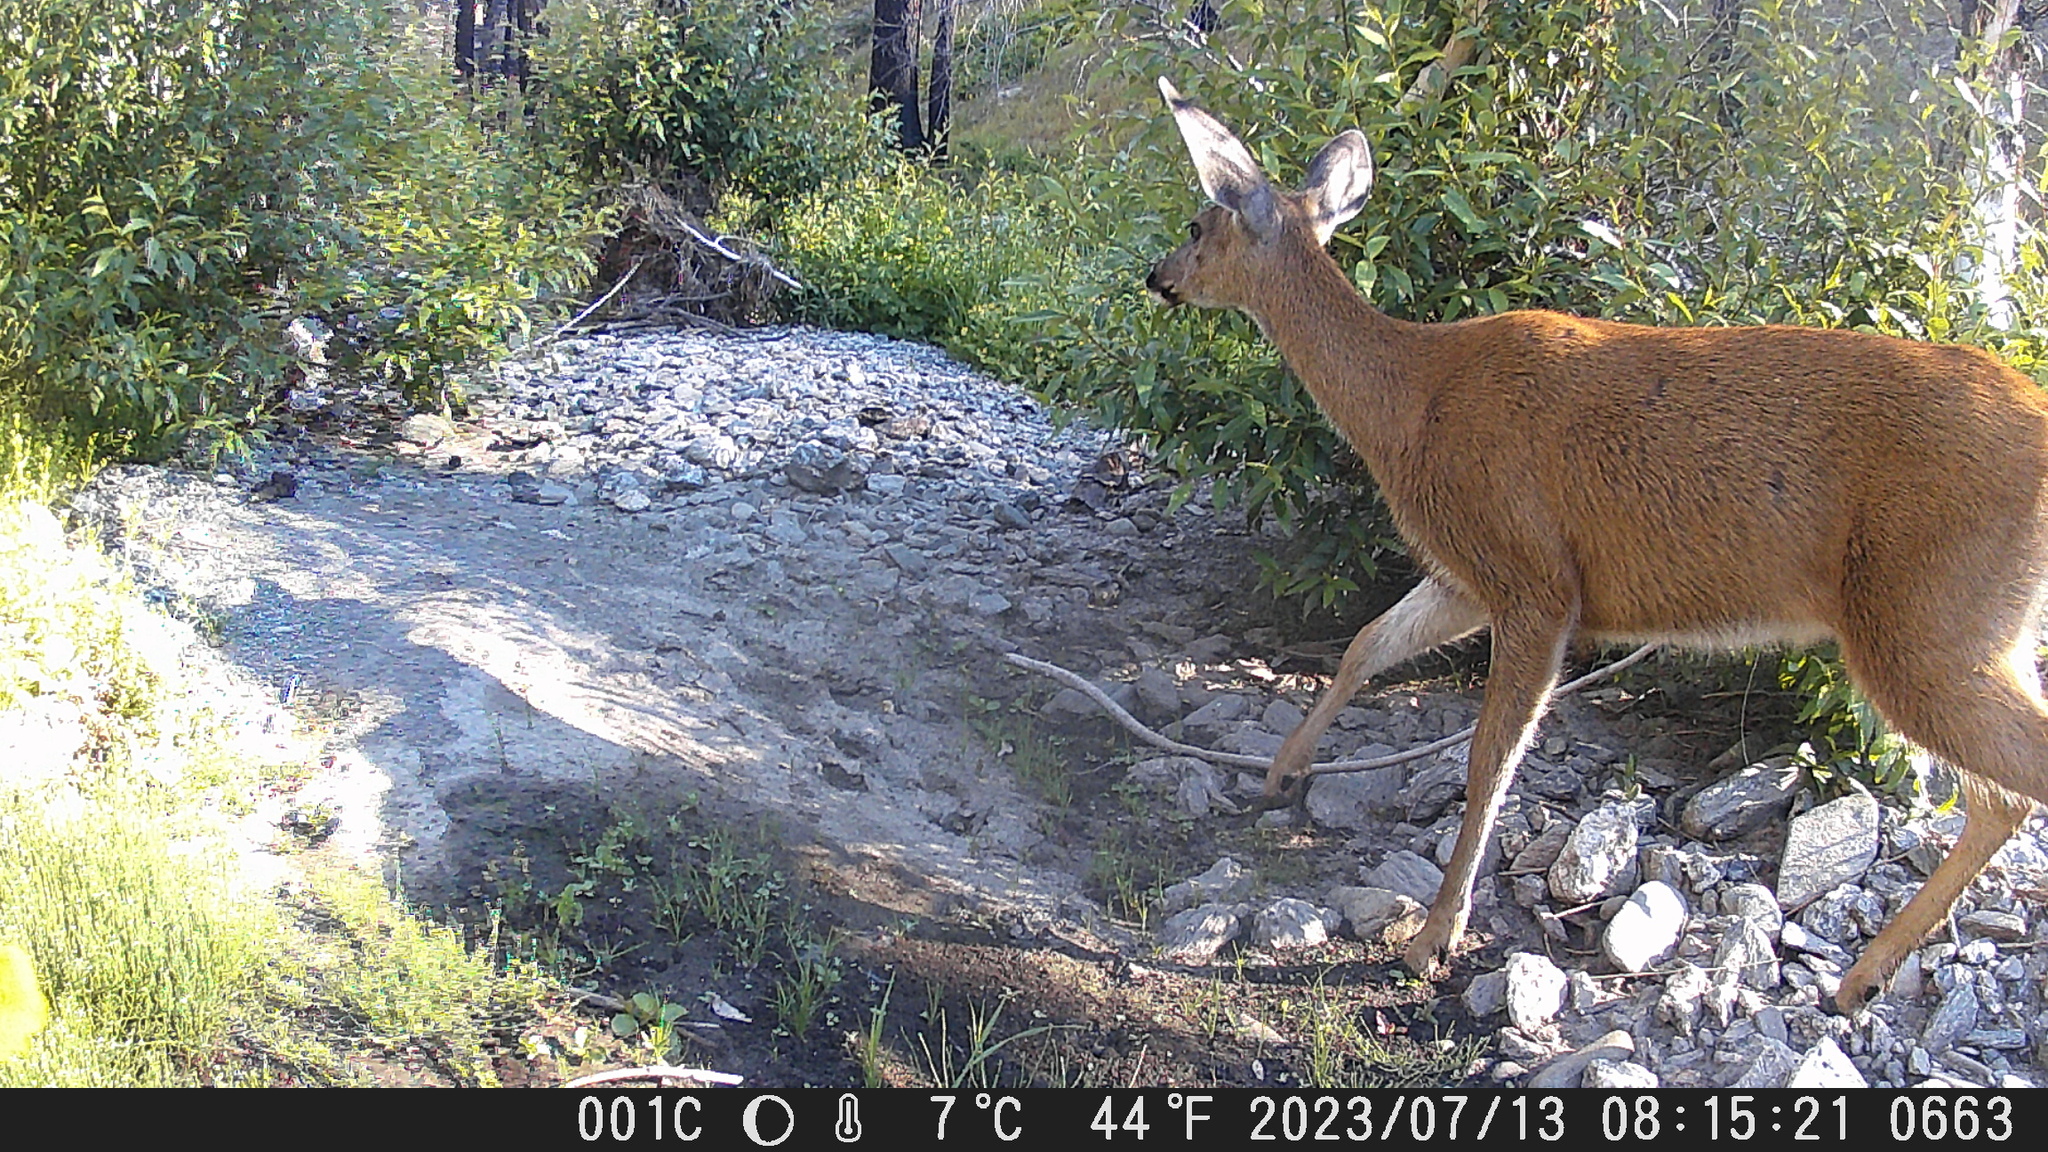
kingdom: Animalia
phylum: Chordata
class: Mammalia
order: Artiodactyla
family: Cervidae
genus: Odocoileus
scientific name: Odocoileus hemionus
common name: Mule deer
